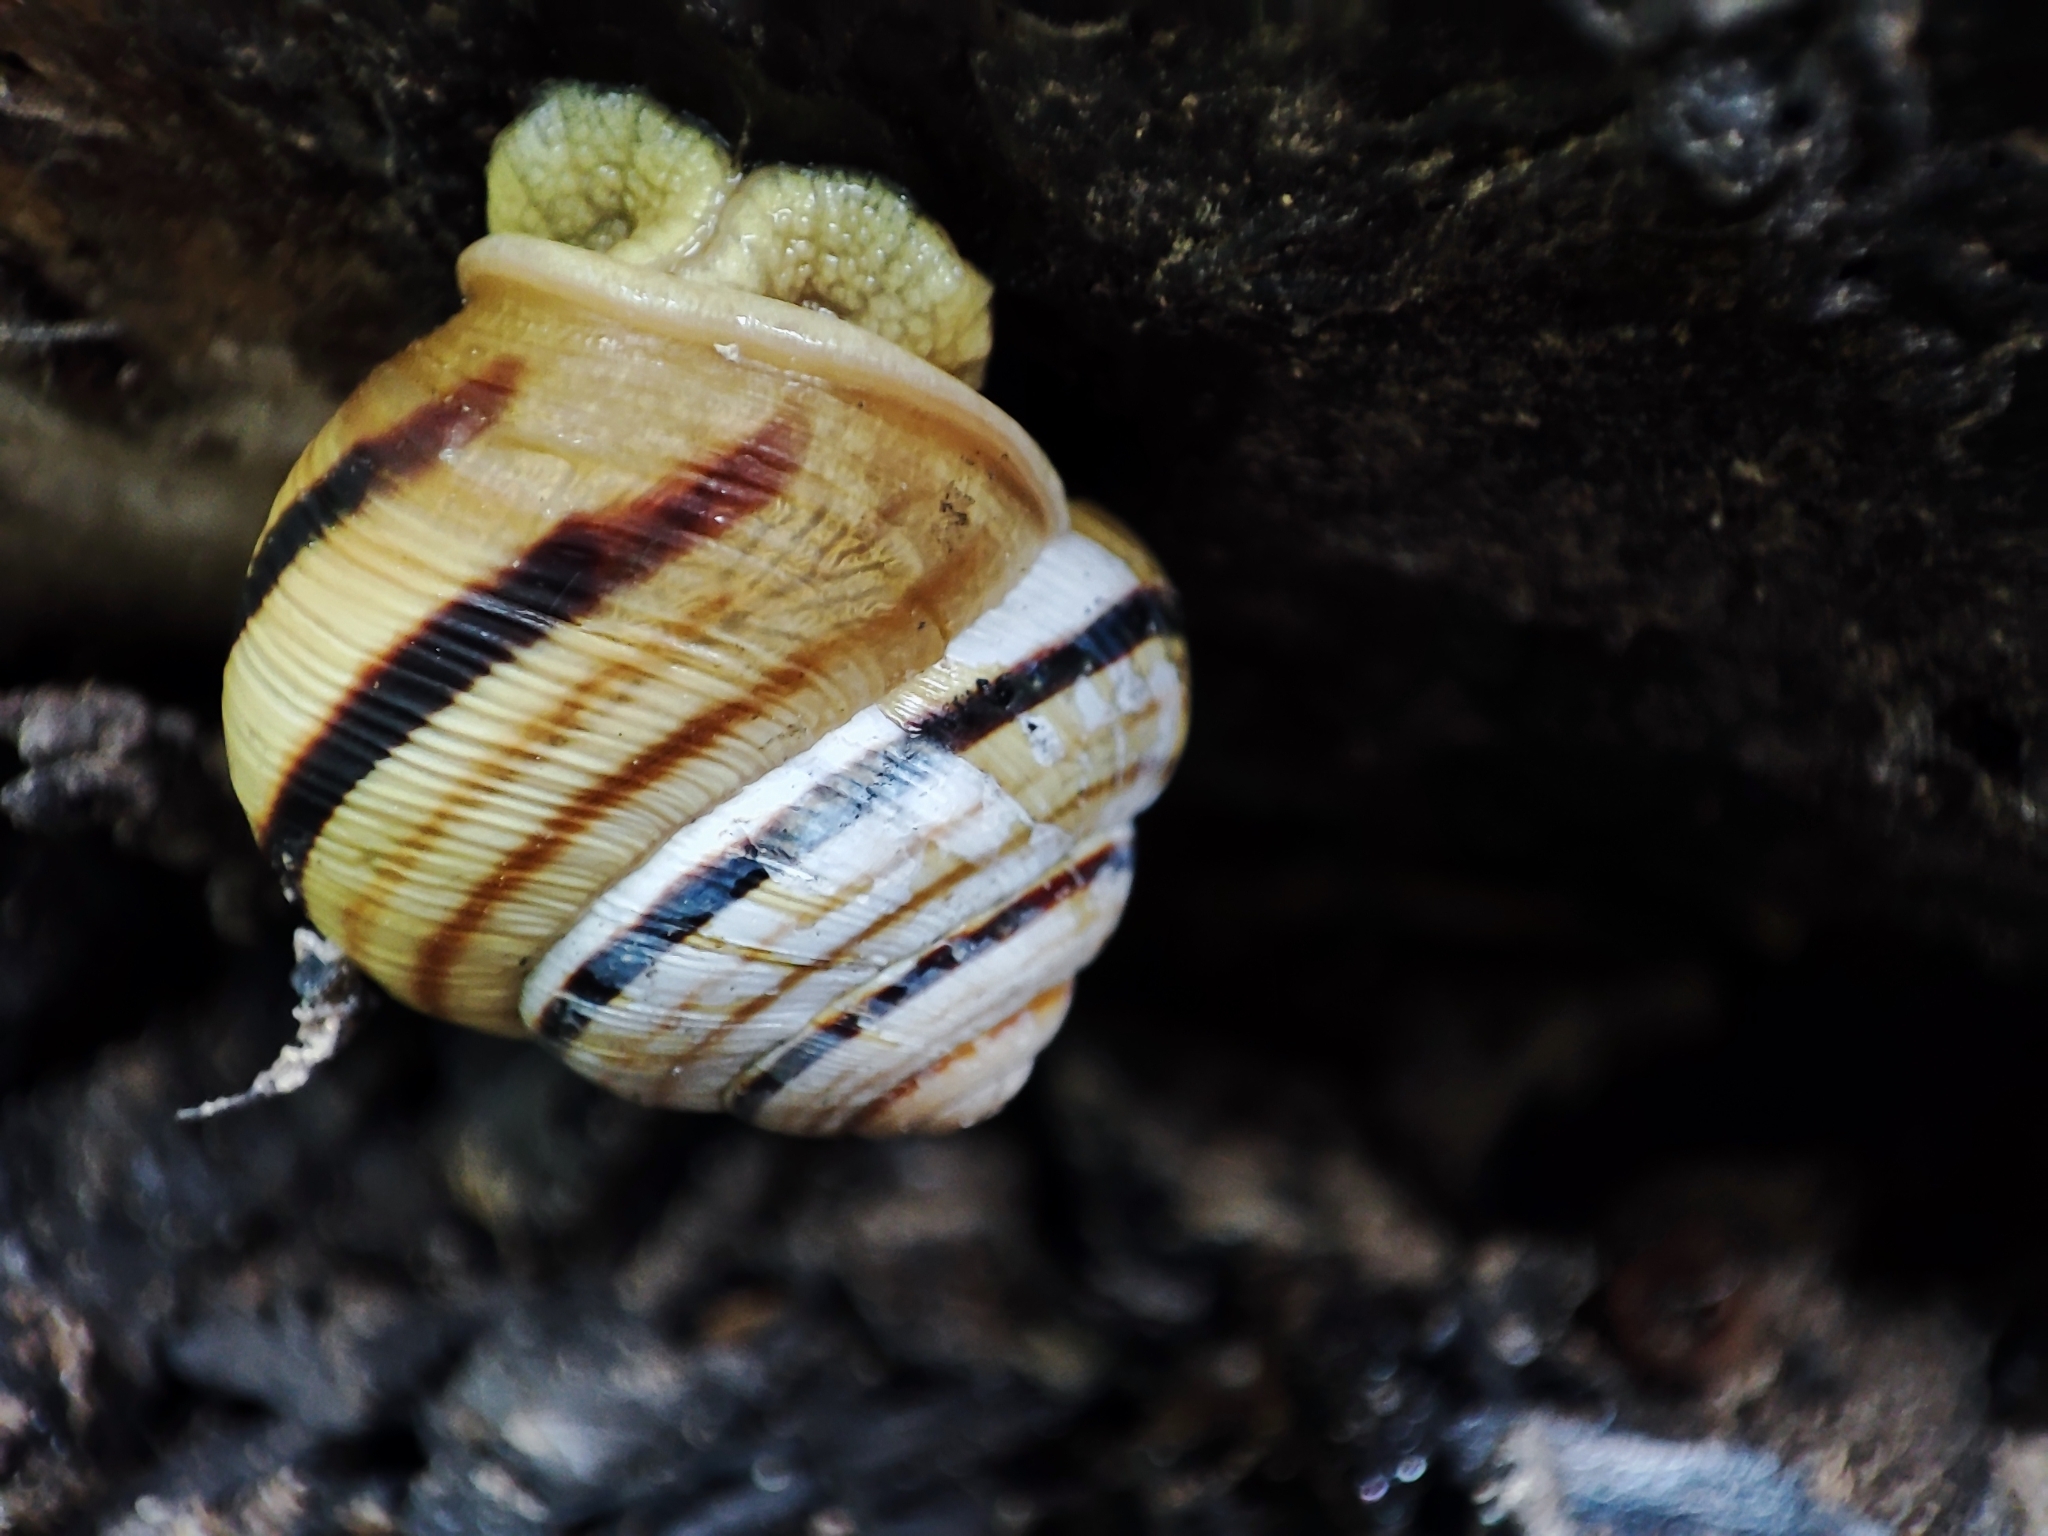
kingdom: Animalia
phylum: Mollusca
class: Gastropoda
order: Stylommatophora
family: Helicidae
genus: Caucasotachea
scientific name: Caucasotachea vindobonensis
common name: European helicid land snail
